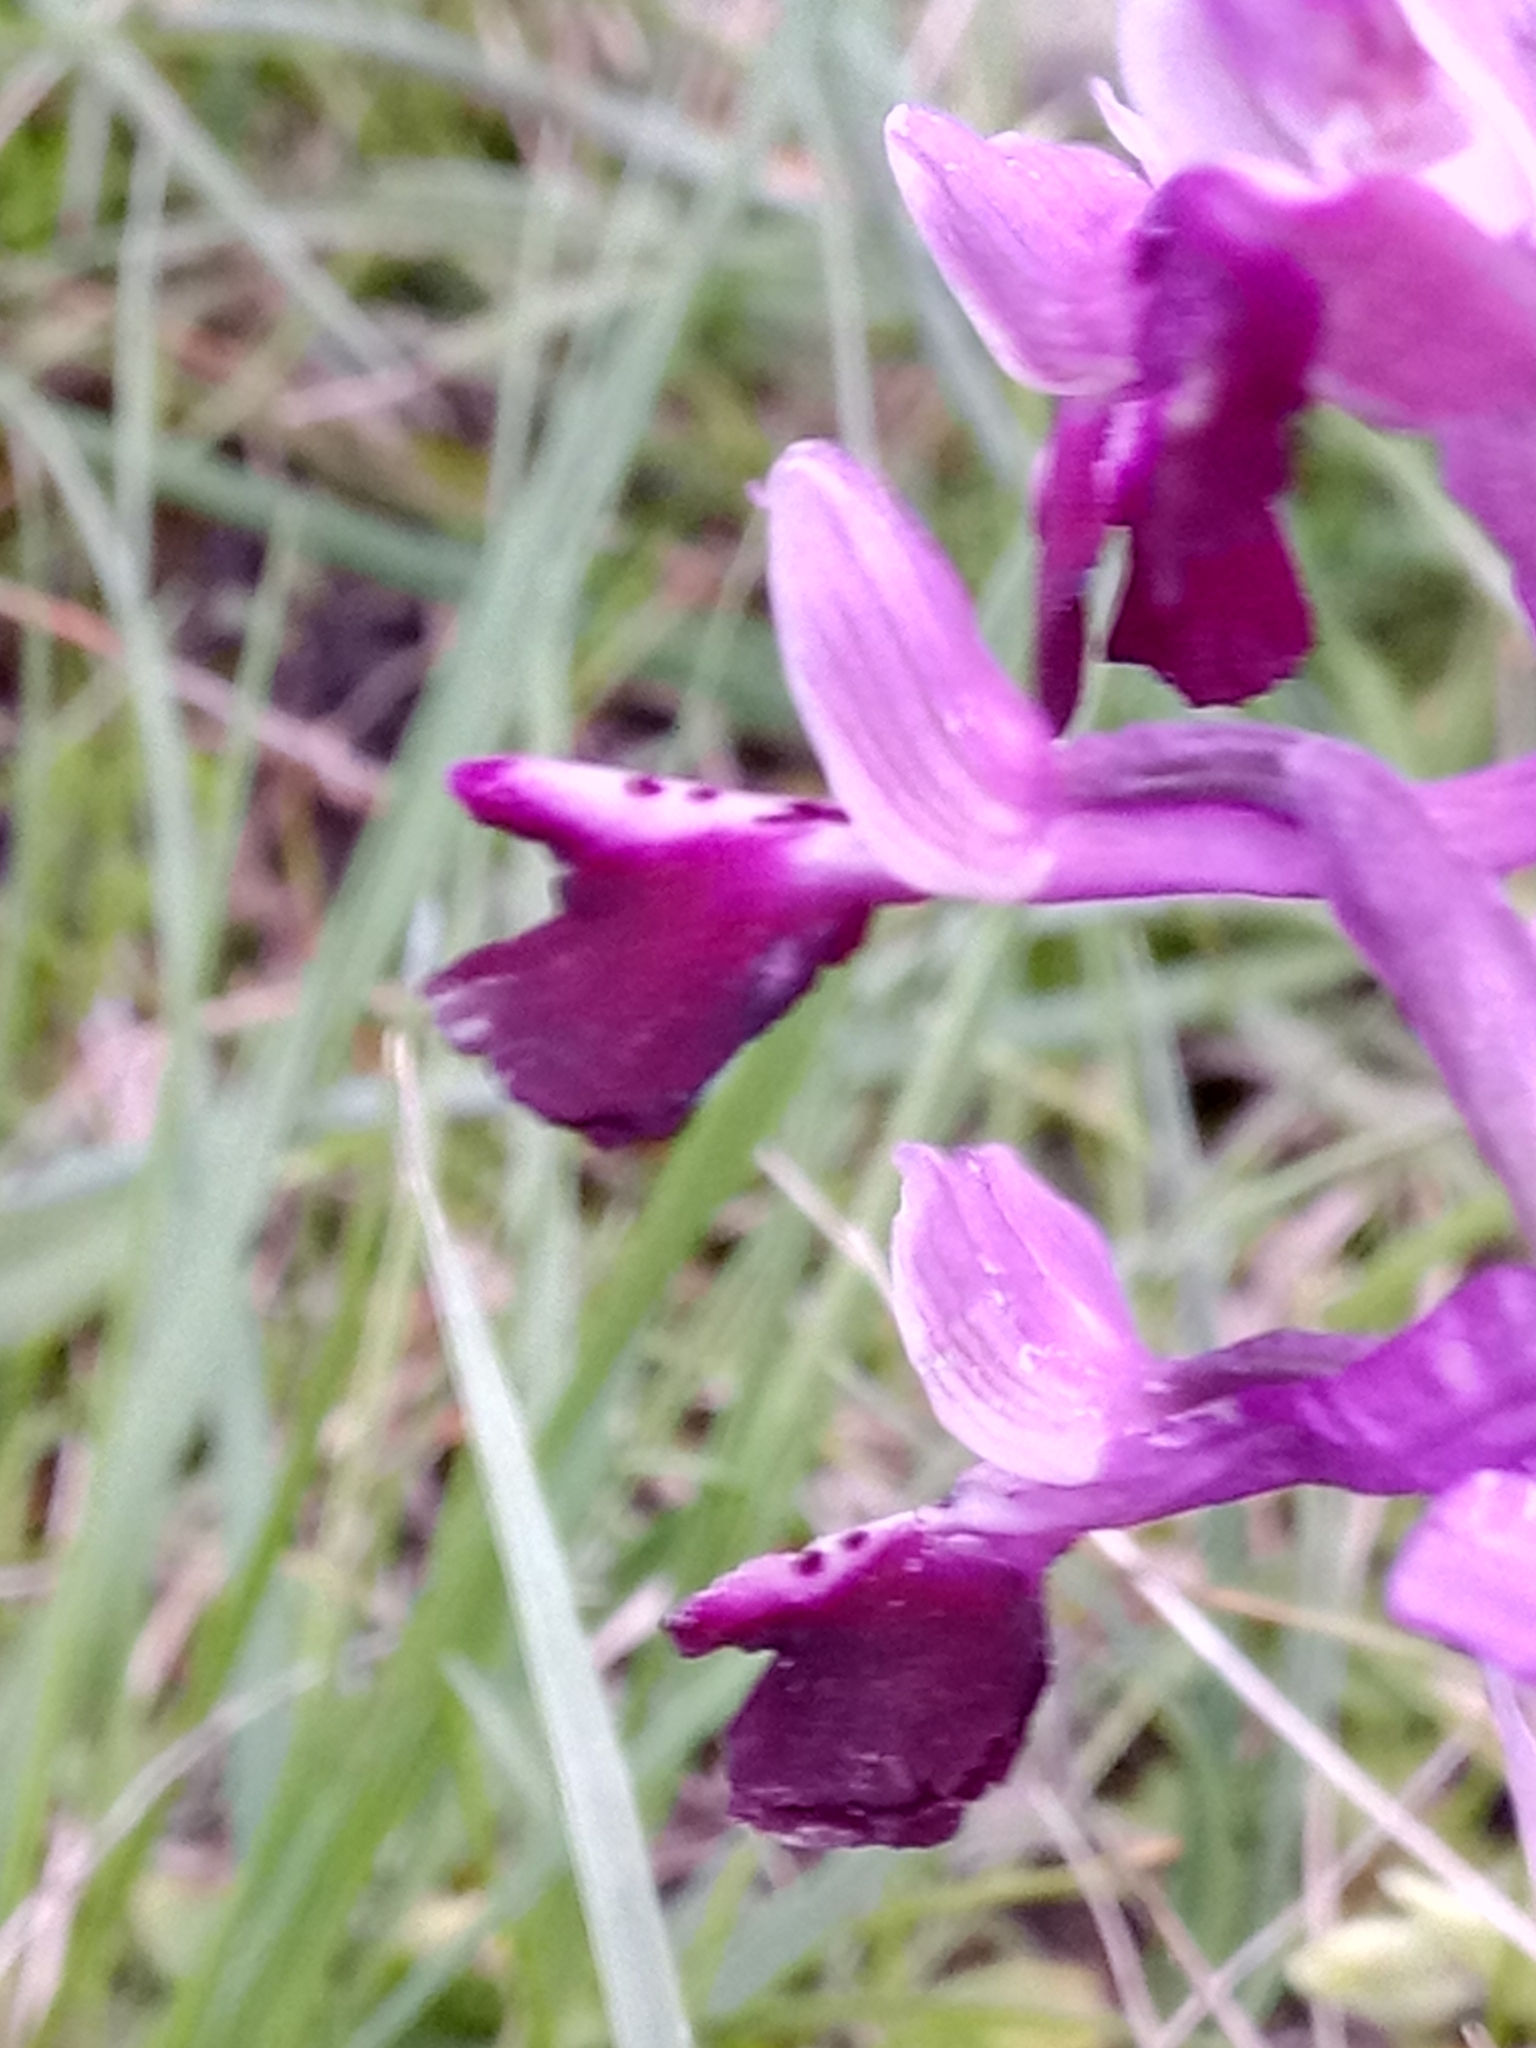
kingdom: Plantae
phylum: Tracheophyta
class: Liliopsida
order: Asparagales
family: Orchidaceae
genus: Anacamptis
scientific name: Anacamptis morio
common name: Green-winged orchid
